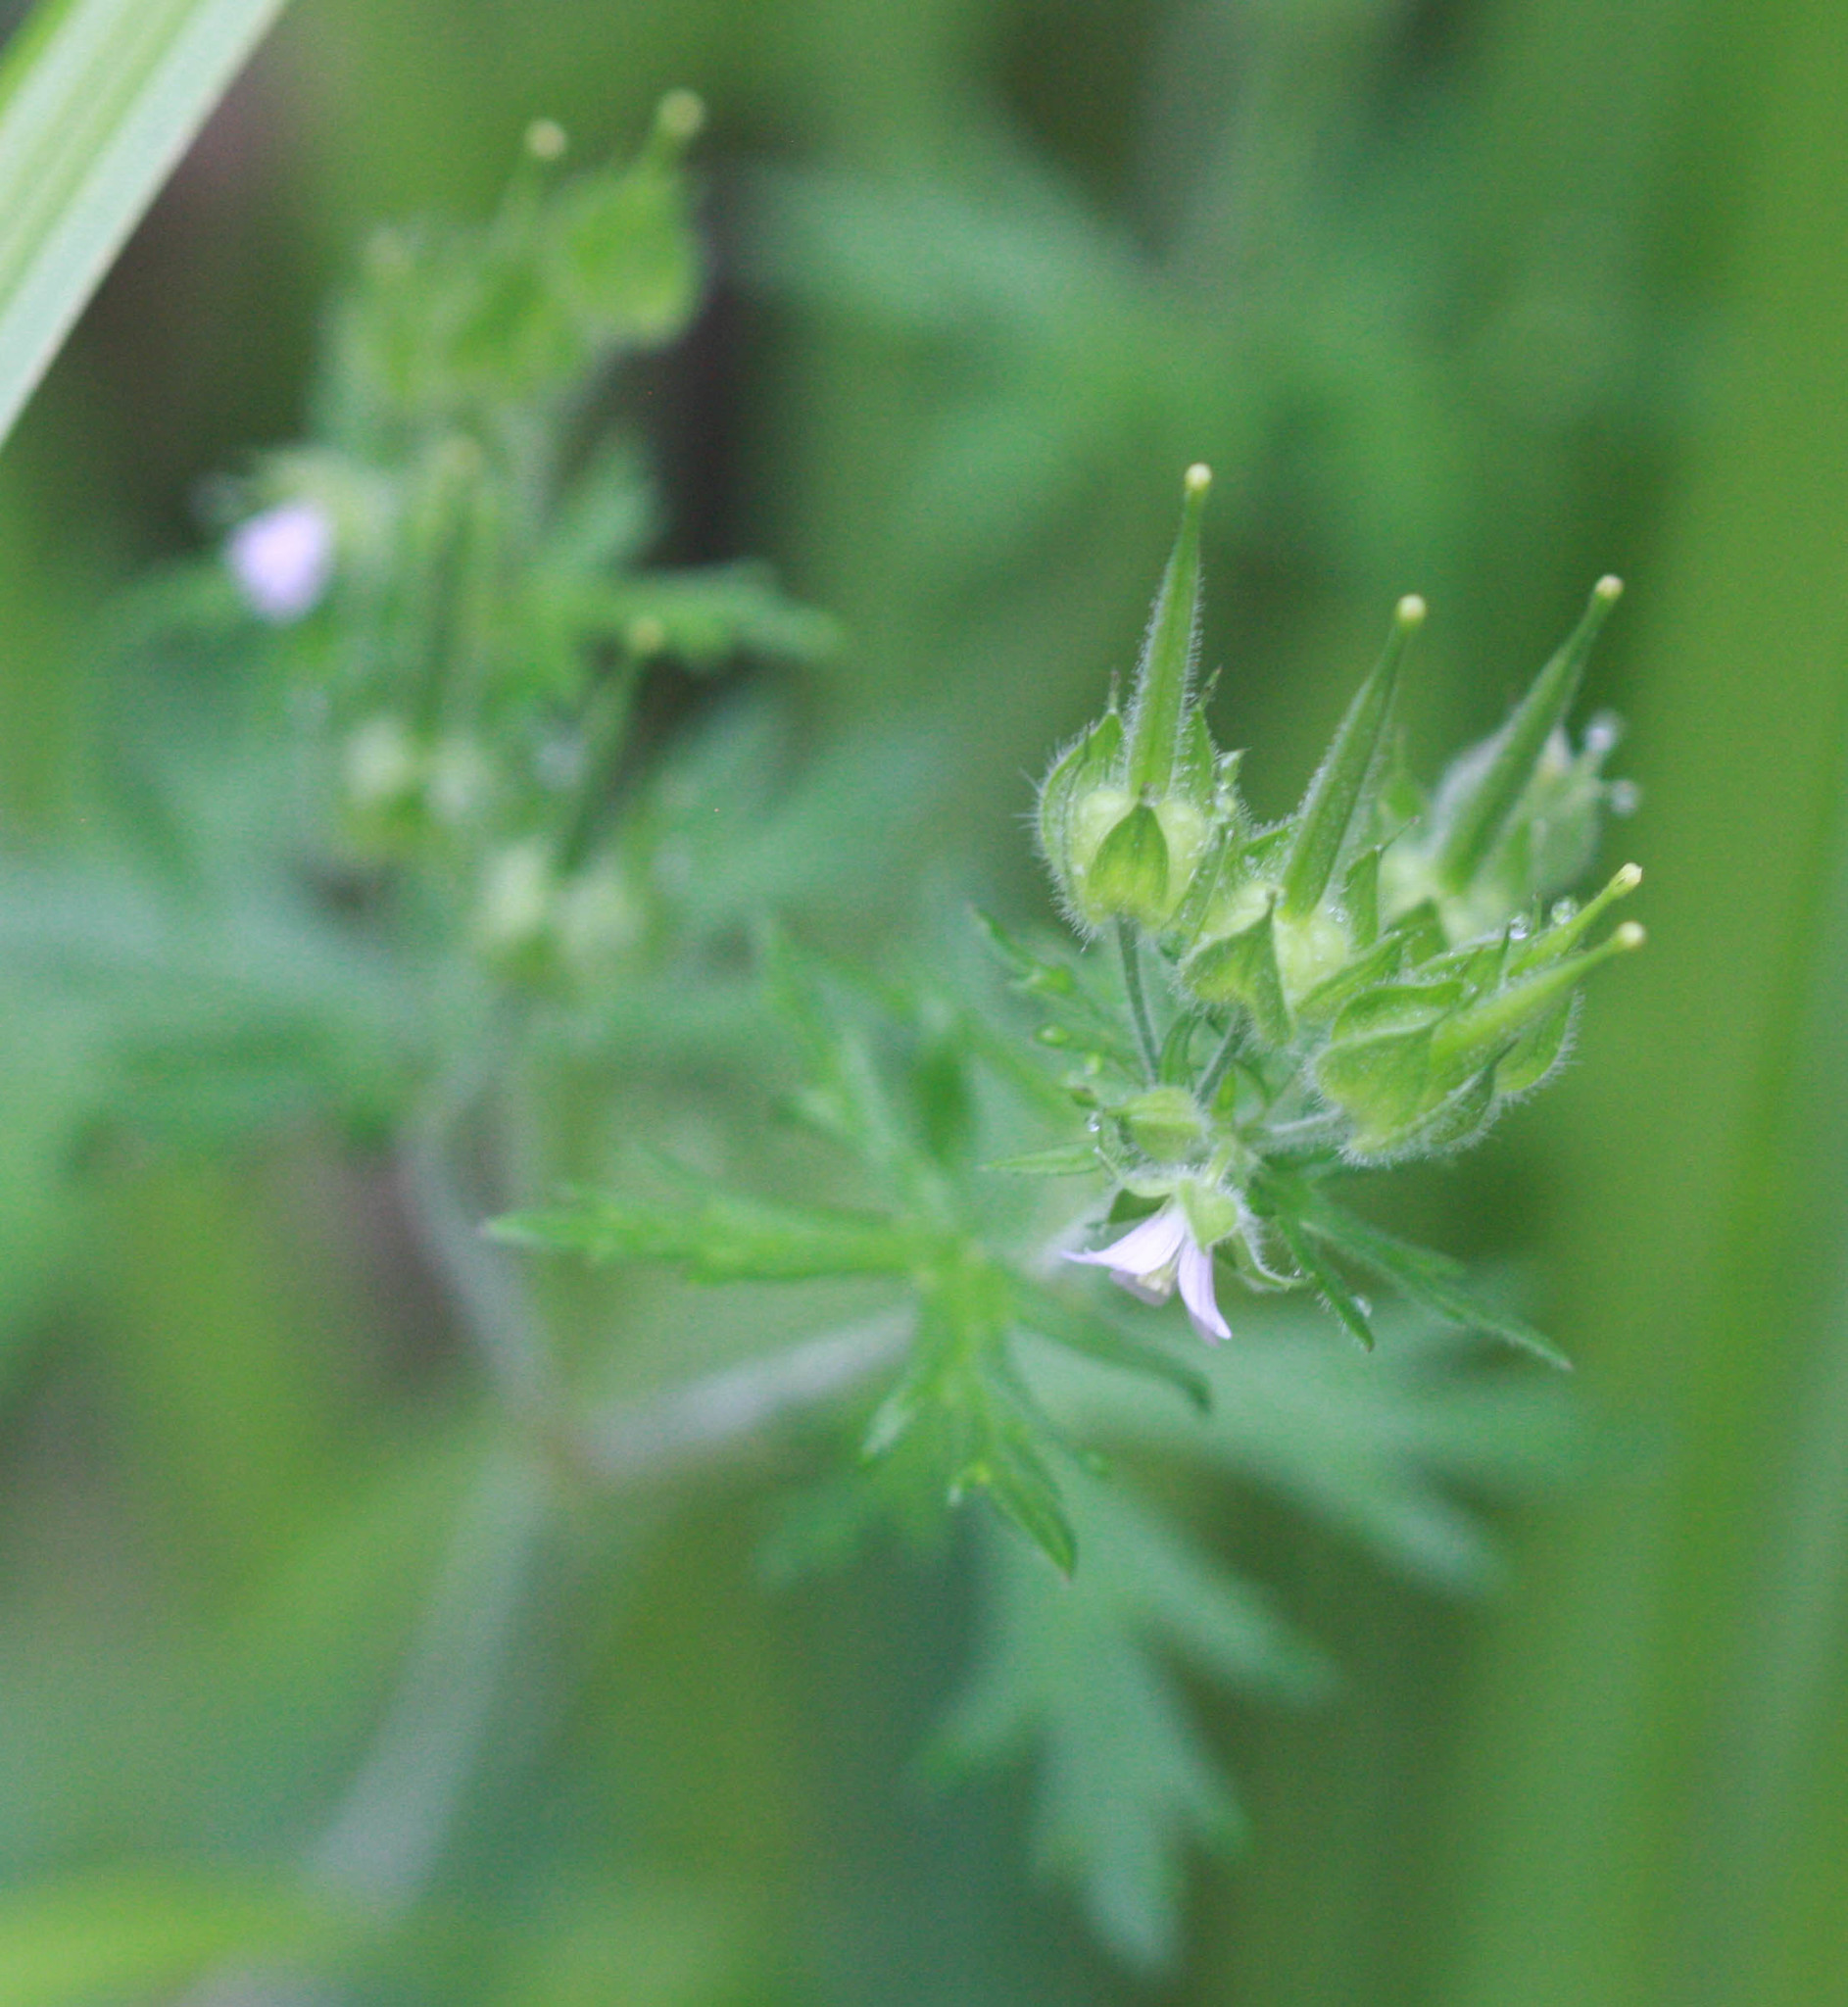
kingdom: Plantae
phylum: Tracheophyta
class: Magnoliopsida
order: Geraniales
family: Geraniaceae
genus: Geranium
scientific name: Geranium carolinianum
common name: Carolina crane's-bill
